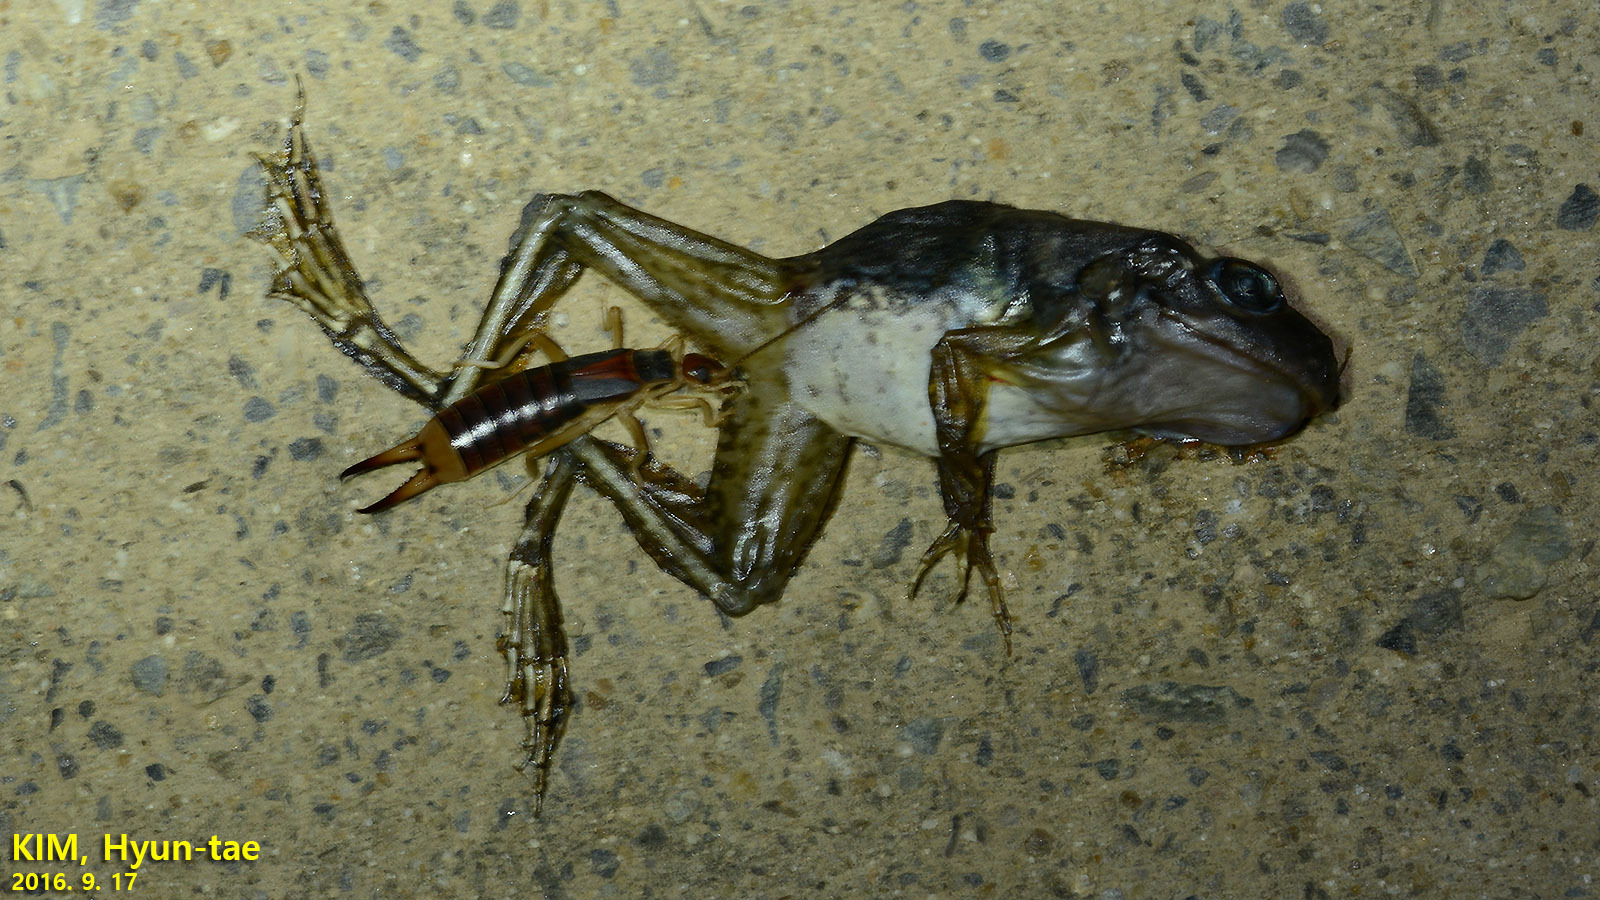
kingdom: Animalia
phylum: Arthropoda
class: Insecta
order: Dermaptera
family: Labiduridae
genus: Labidura
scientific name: Labidura riparia
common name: Striped earwig
